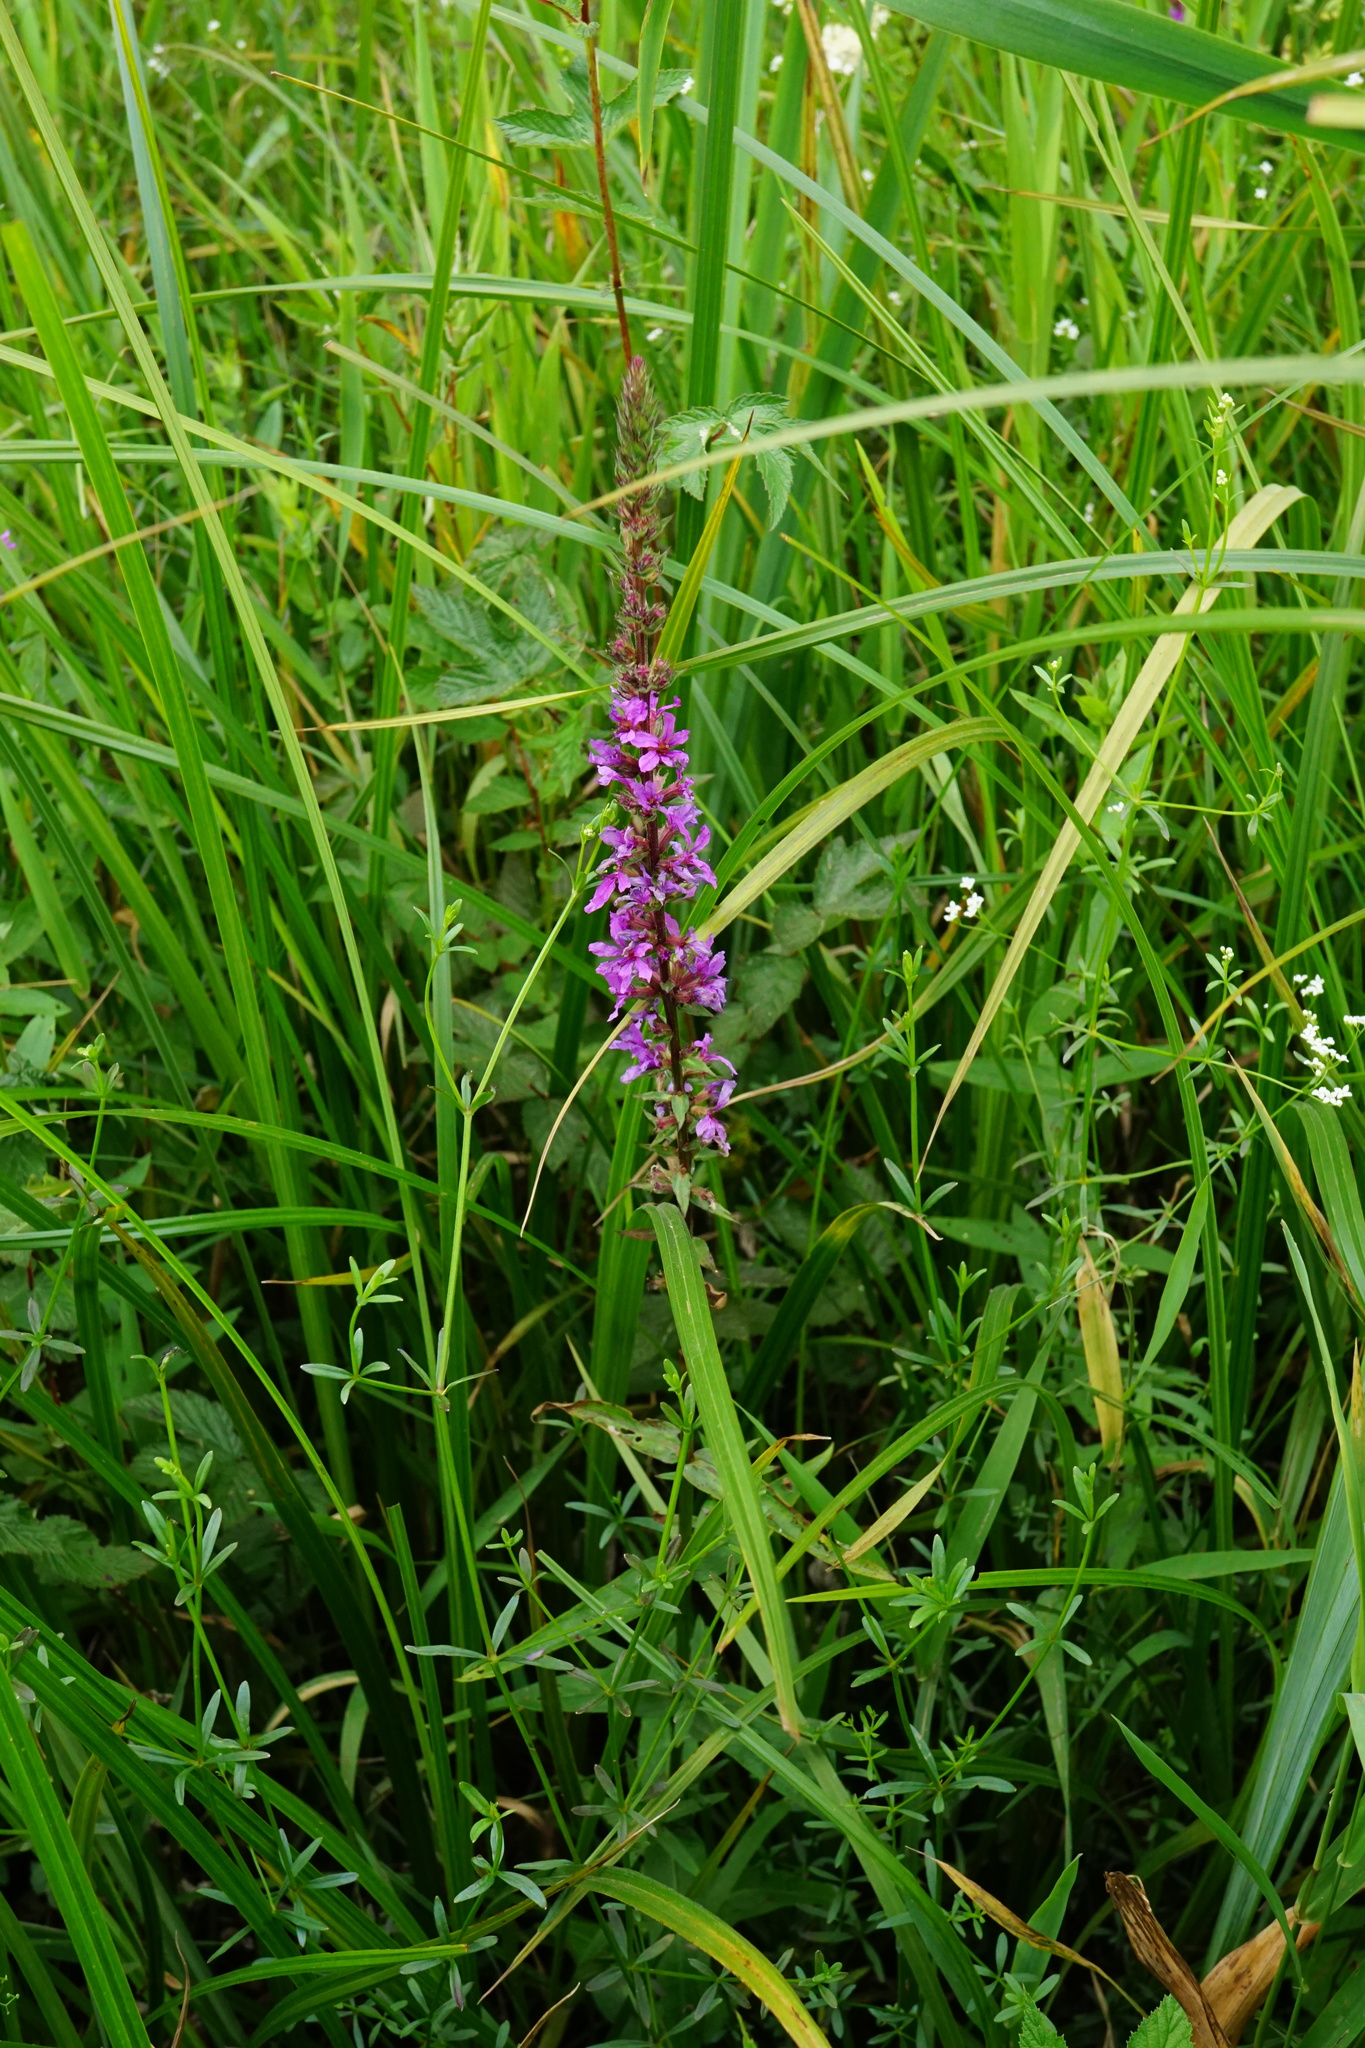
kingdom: Plantae
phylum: Tracheophyta
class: Magnoliopsida
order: Myrtales
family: Lythraceae
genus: Lythrum
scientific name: Lythrum salicaria
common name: Purple loosestrife
